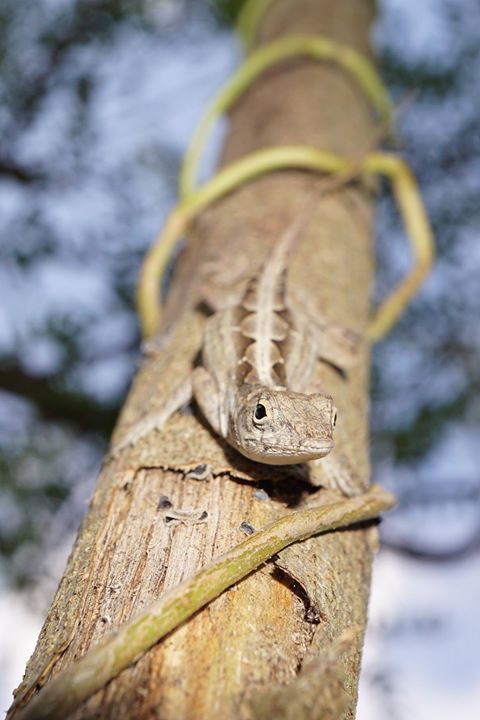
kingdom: Animalia
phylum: Chordata
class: Squamata
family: Dactyloidae
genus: Anolis
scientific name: Anolis sagrei
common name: Brown anole
